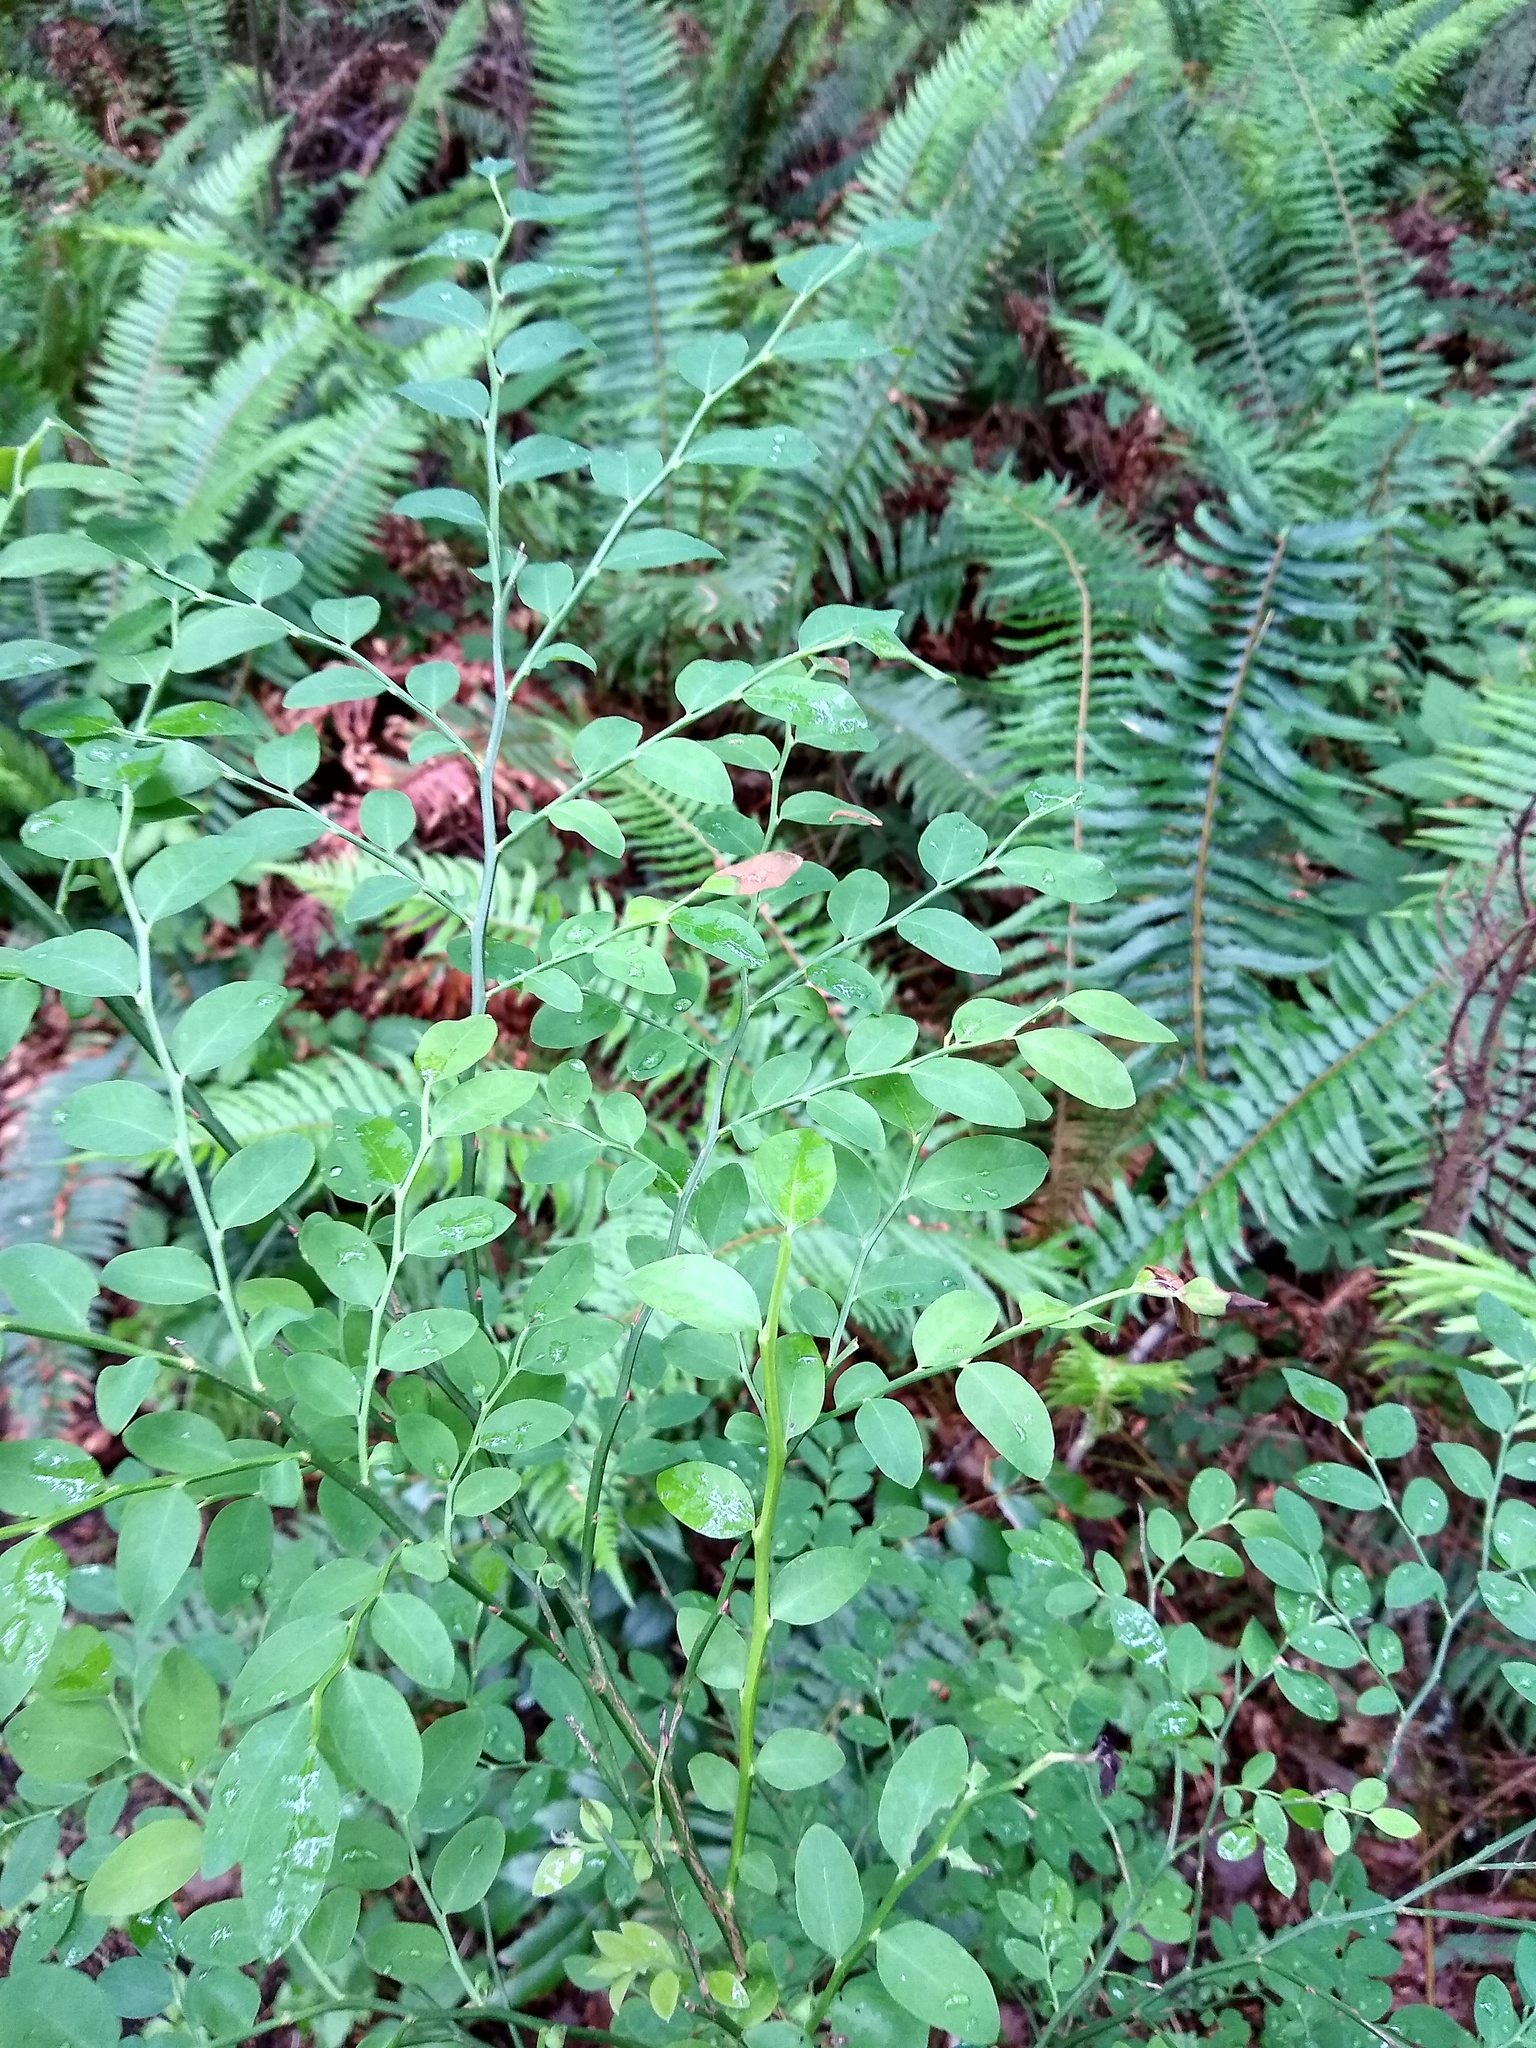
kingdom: Plantae
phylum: Tracheophyta
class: Magnoliopsida
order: Ericales
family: Ericaceae
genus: Vaccinium
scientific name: Vaccinium parvifolium
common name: Red-huckleberry
